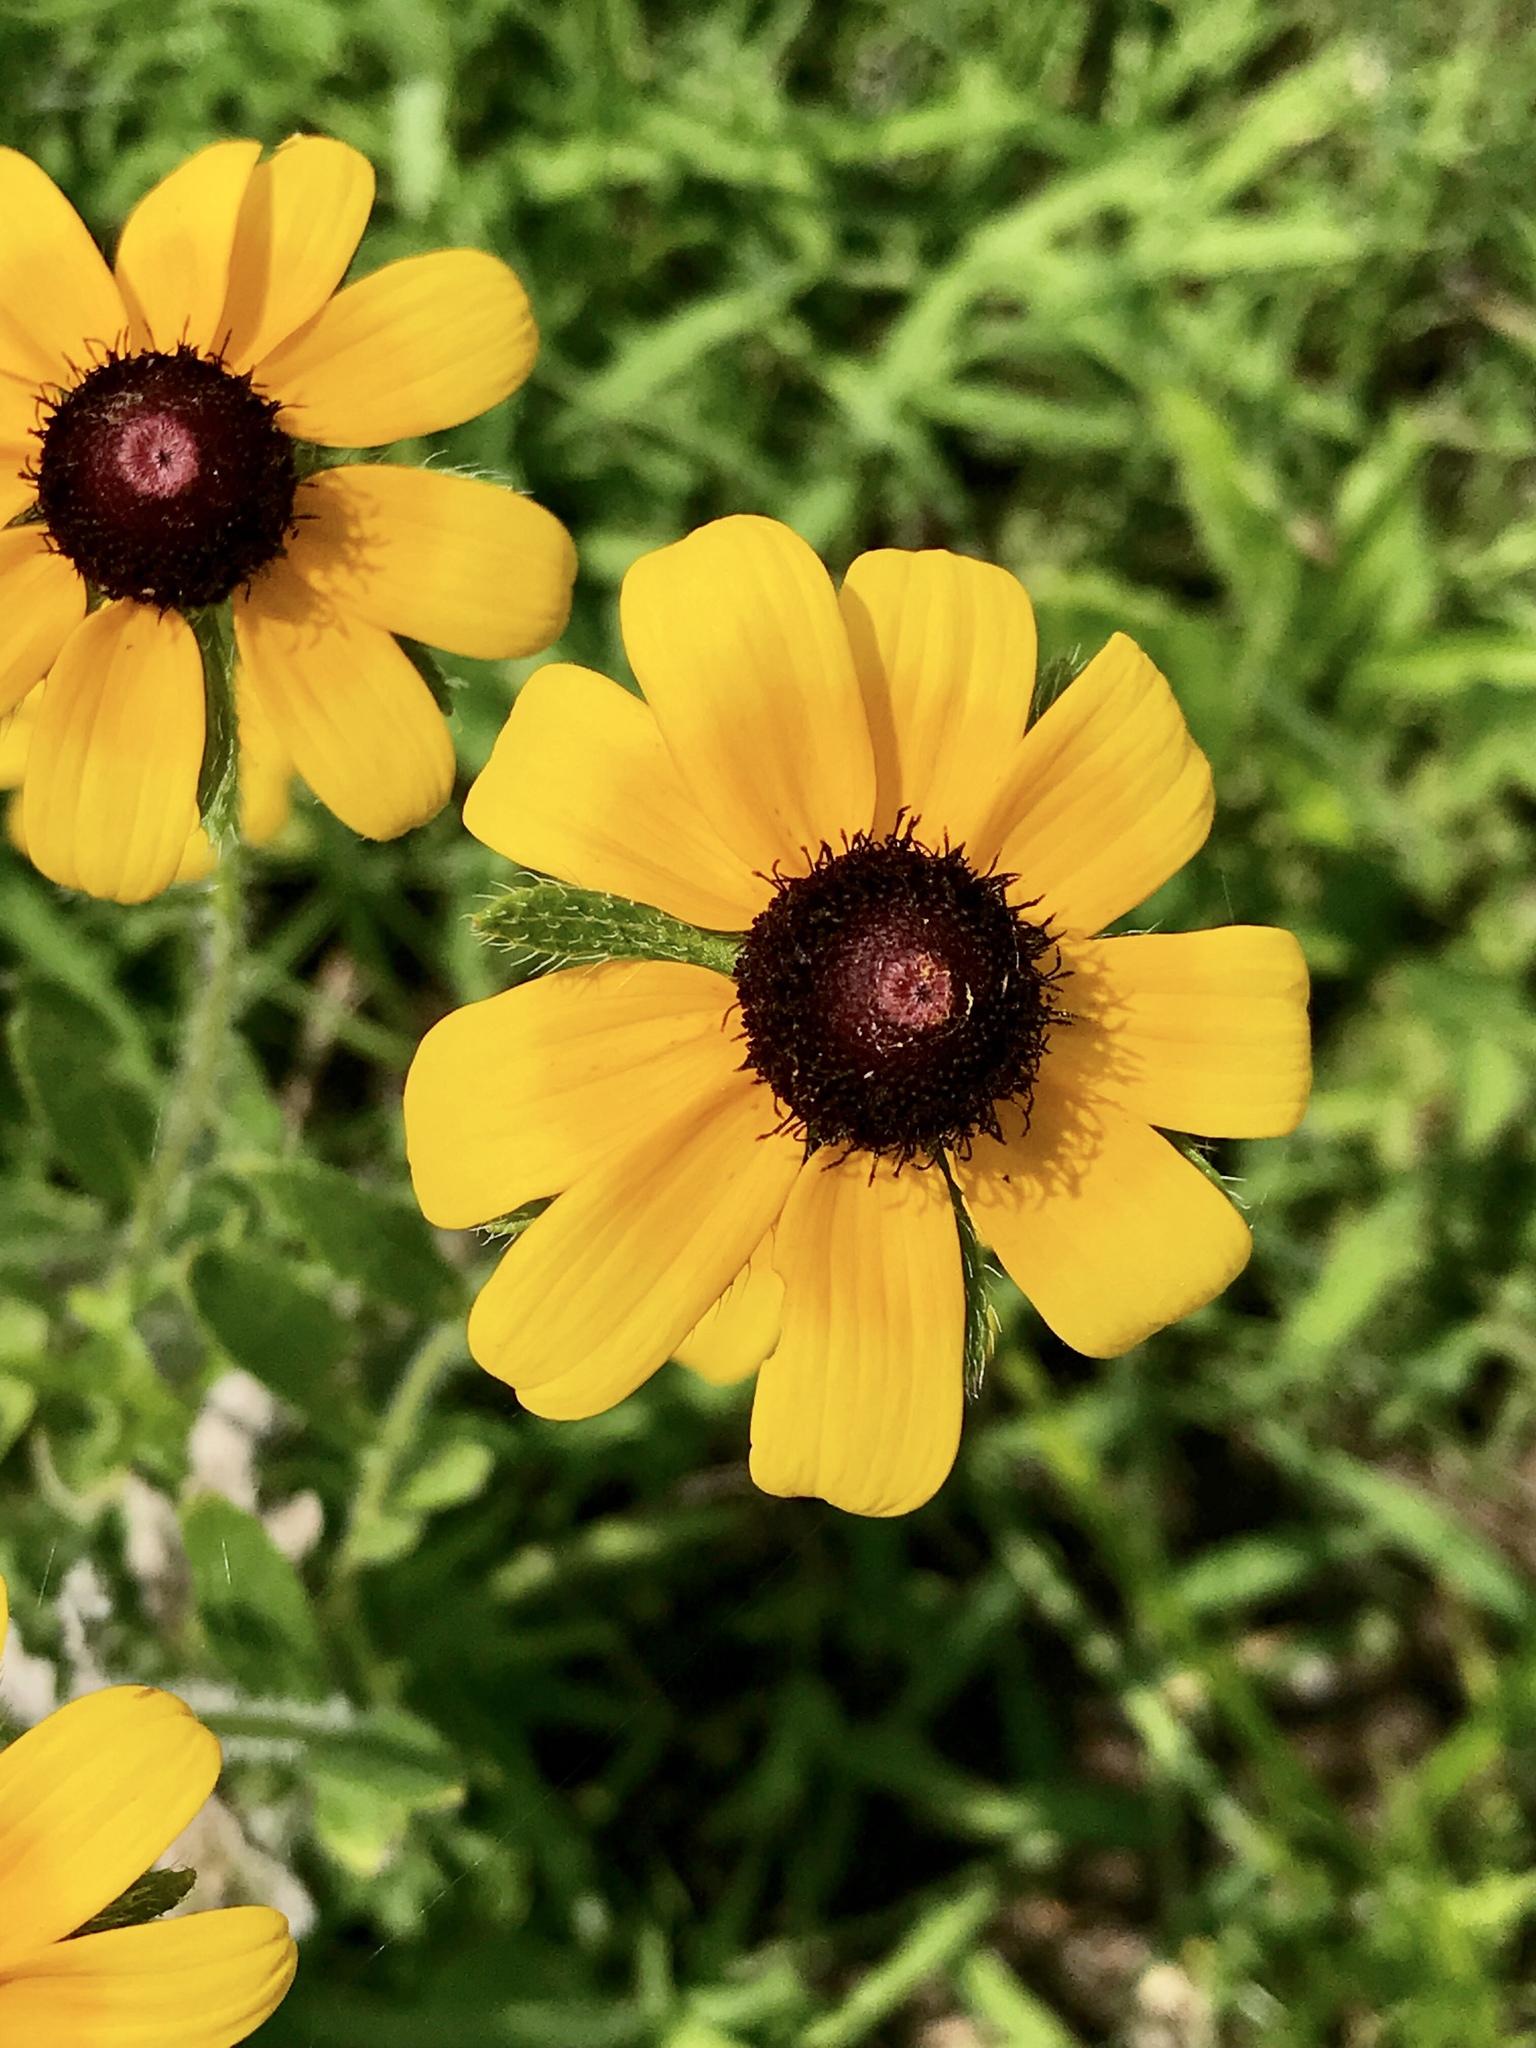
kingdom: Plantae
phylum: Tracheophyta
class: Magnoliopsida
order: Asterales
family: Asteraceae
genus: Rudbeckia
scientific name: Rudbeckia triloba
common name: Thin-leaved coneflower
